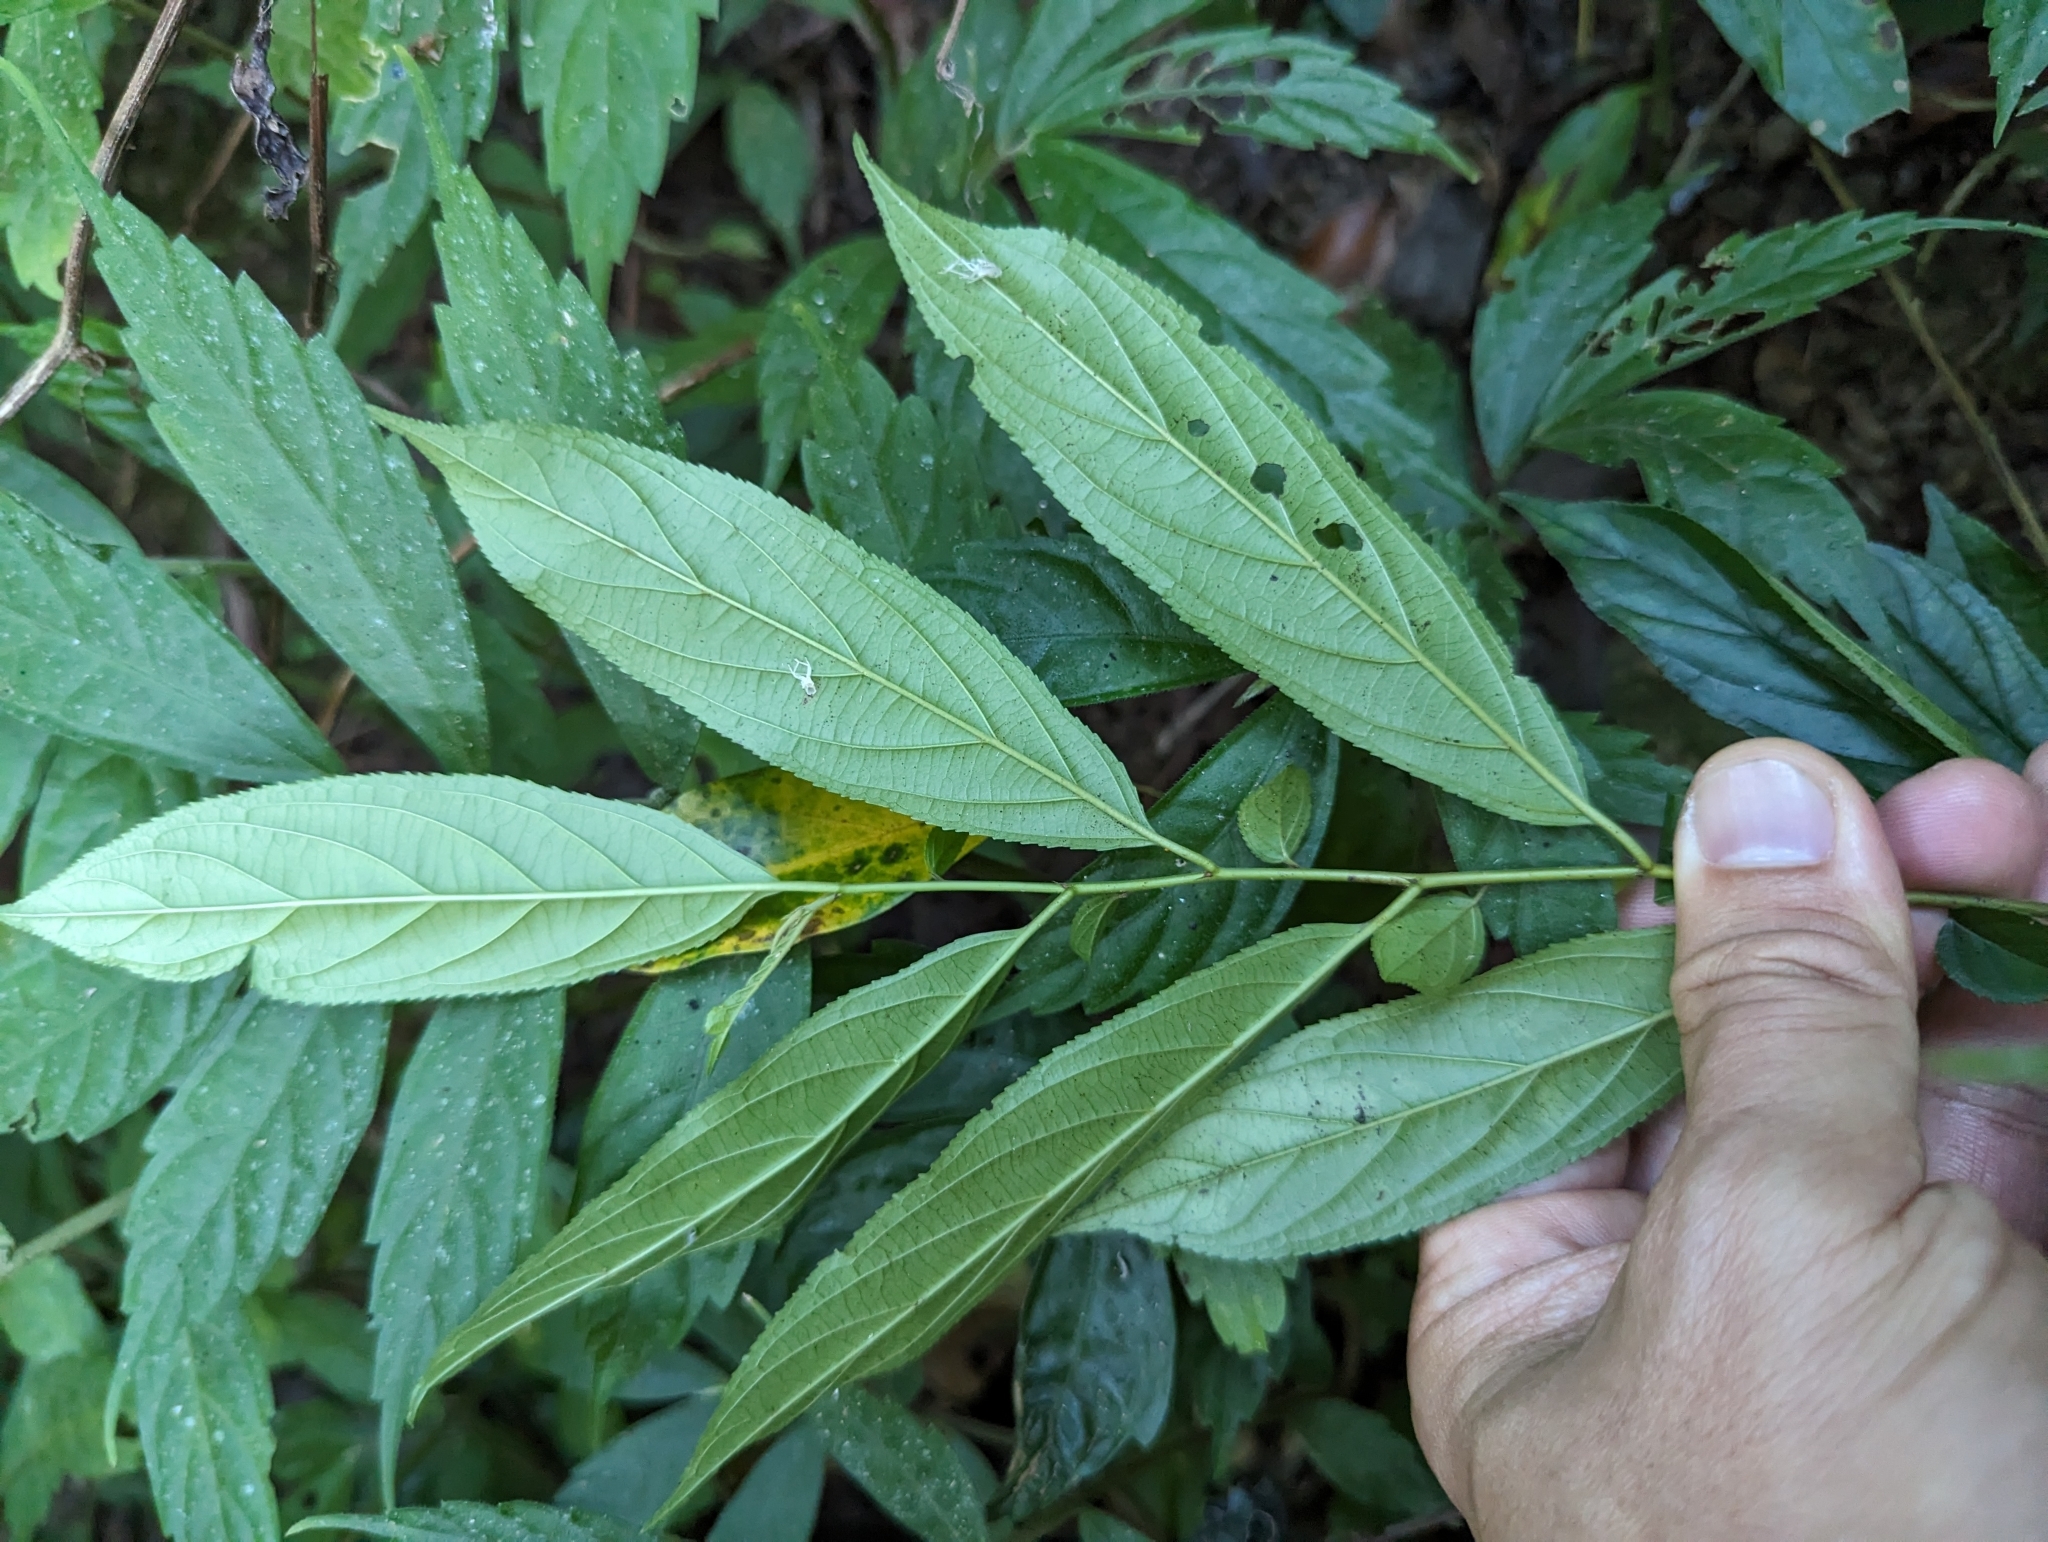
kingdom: Plantae
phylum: Tracheophyta
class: Magnoliopsida
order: Rosales
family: Rhamnaceae
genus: Rhamnus
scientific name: Rhamnus formosana
